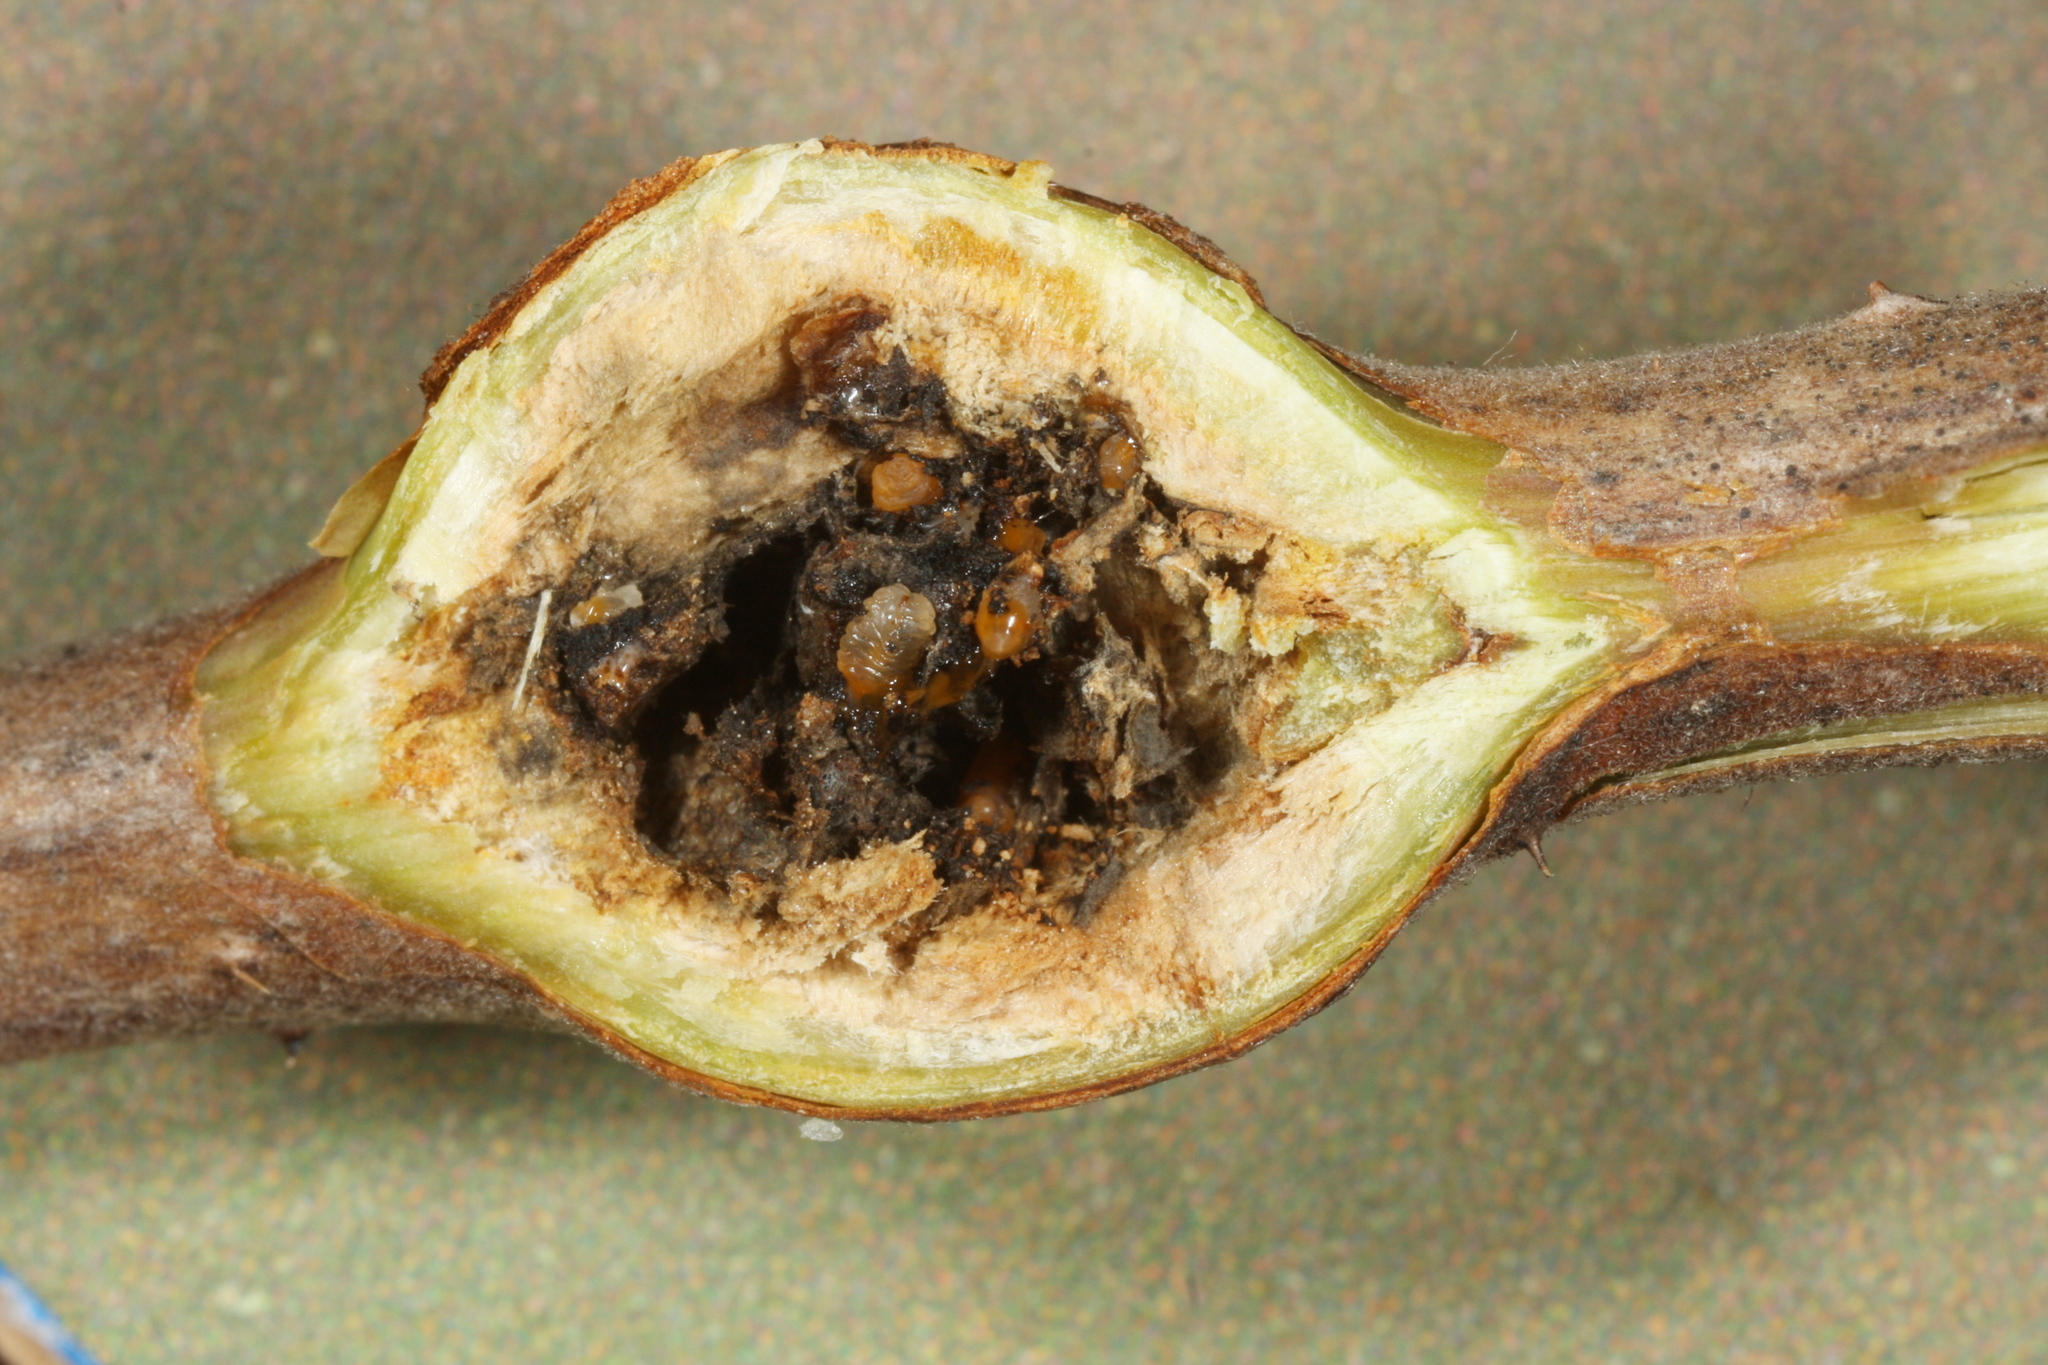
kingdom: Animalia
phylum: Arthropoda
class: Insecta
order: Diptera
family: Cecidomyiidae
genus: Lasioptera
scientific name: Lasioptera rubi
